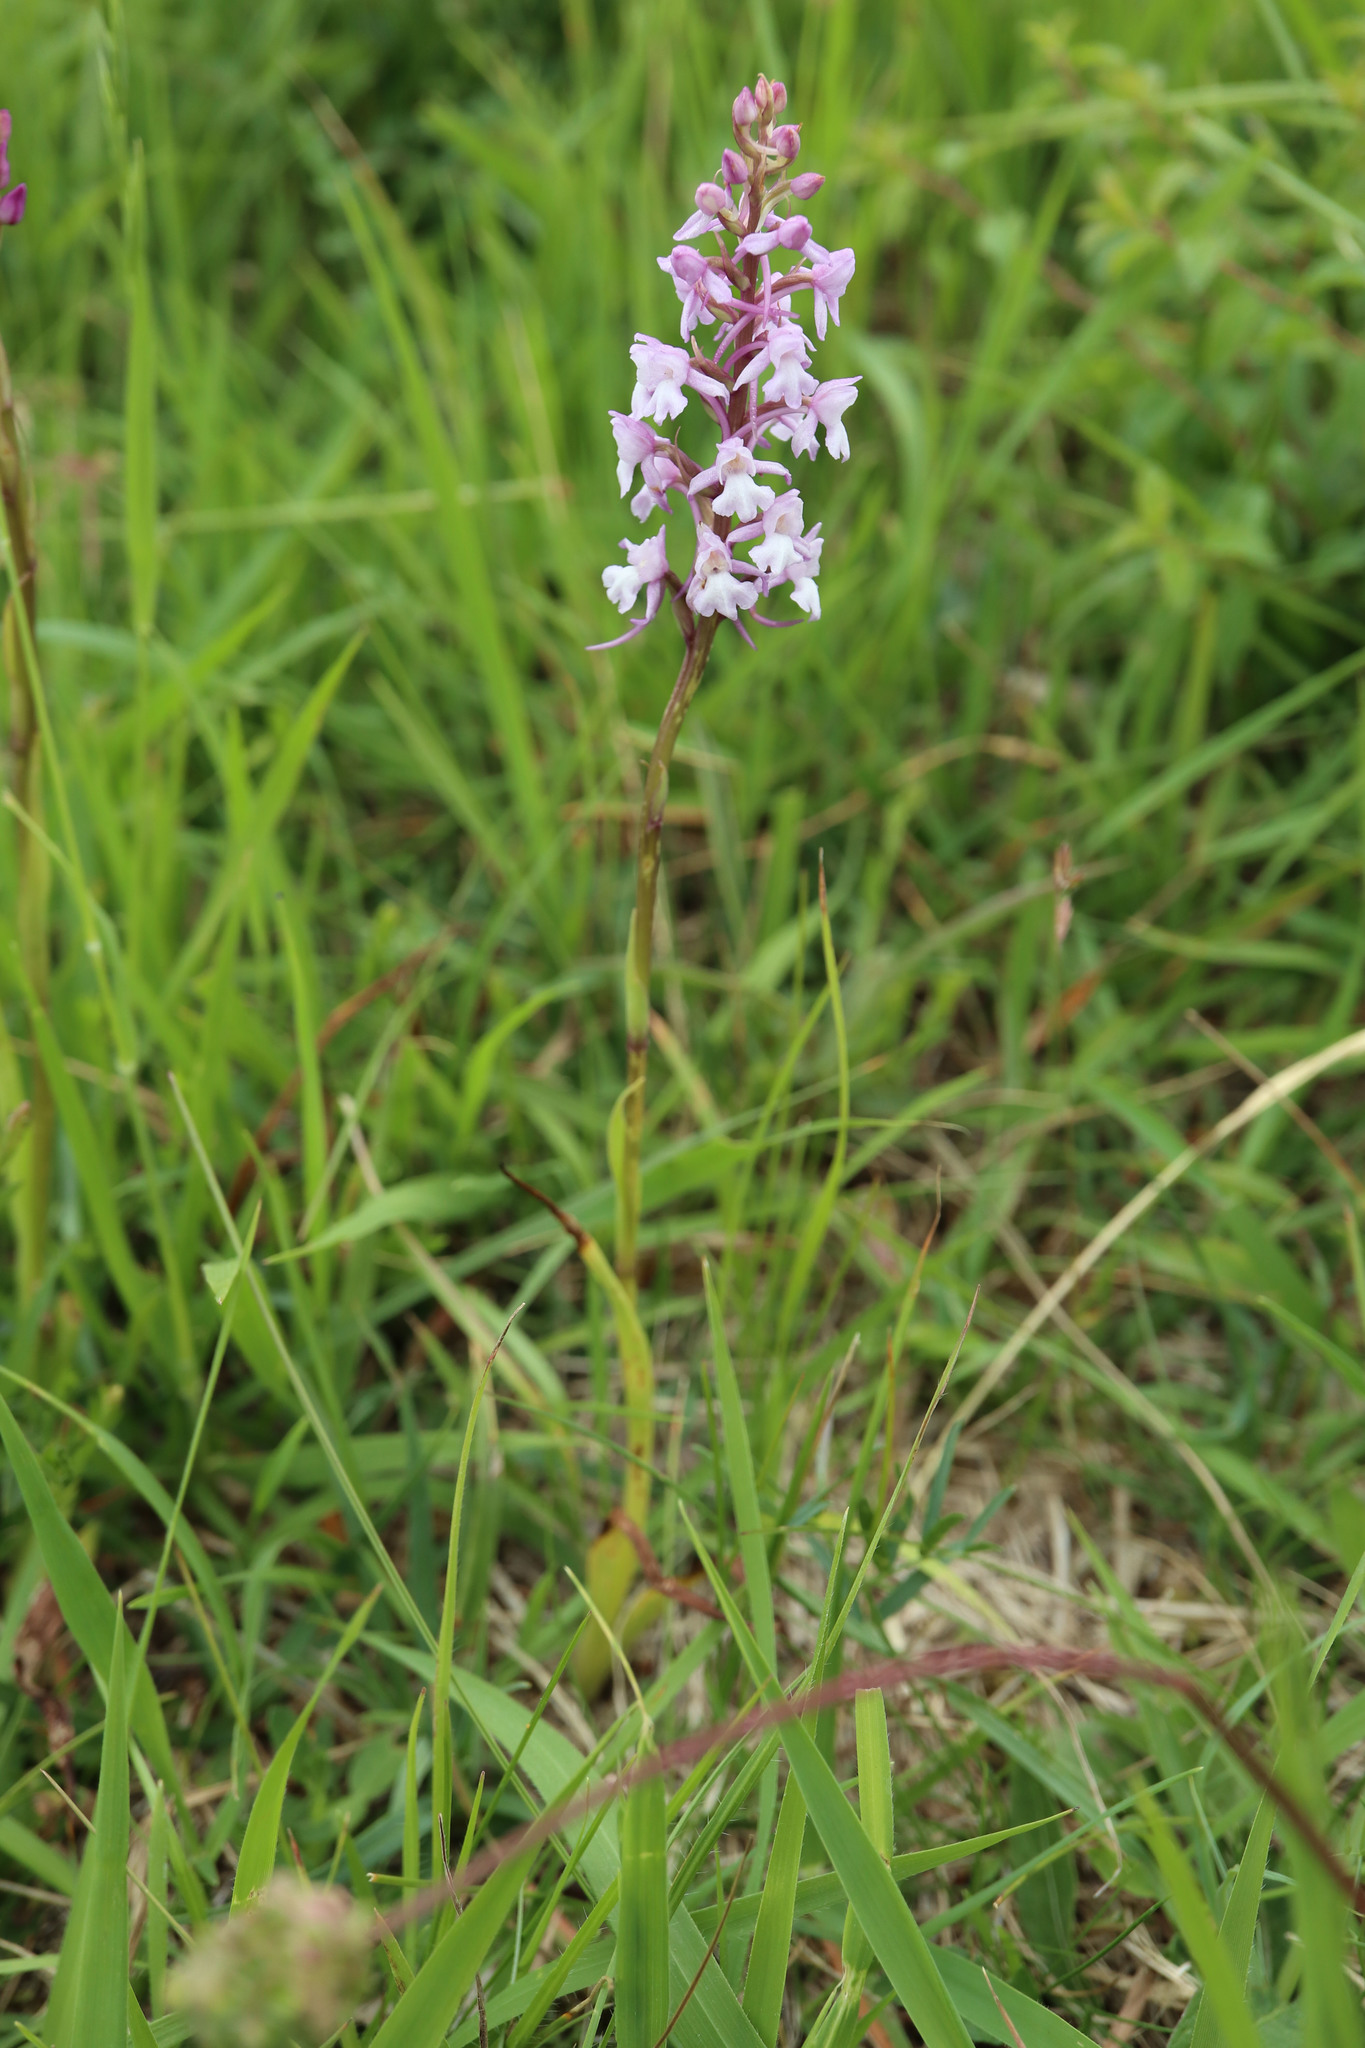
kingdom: Plantae
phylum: Tracheophyta
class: Liliopsida
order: Asparagales
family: Orchidaceae
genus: Gymnadenia
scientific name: Gymnadenia conopsea
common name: Fragrant orchid
